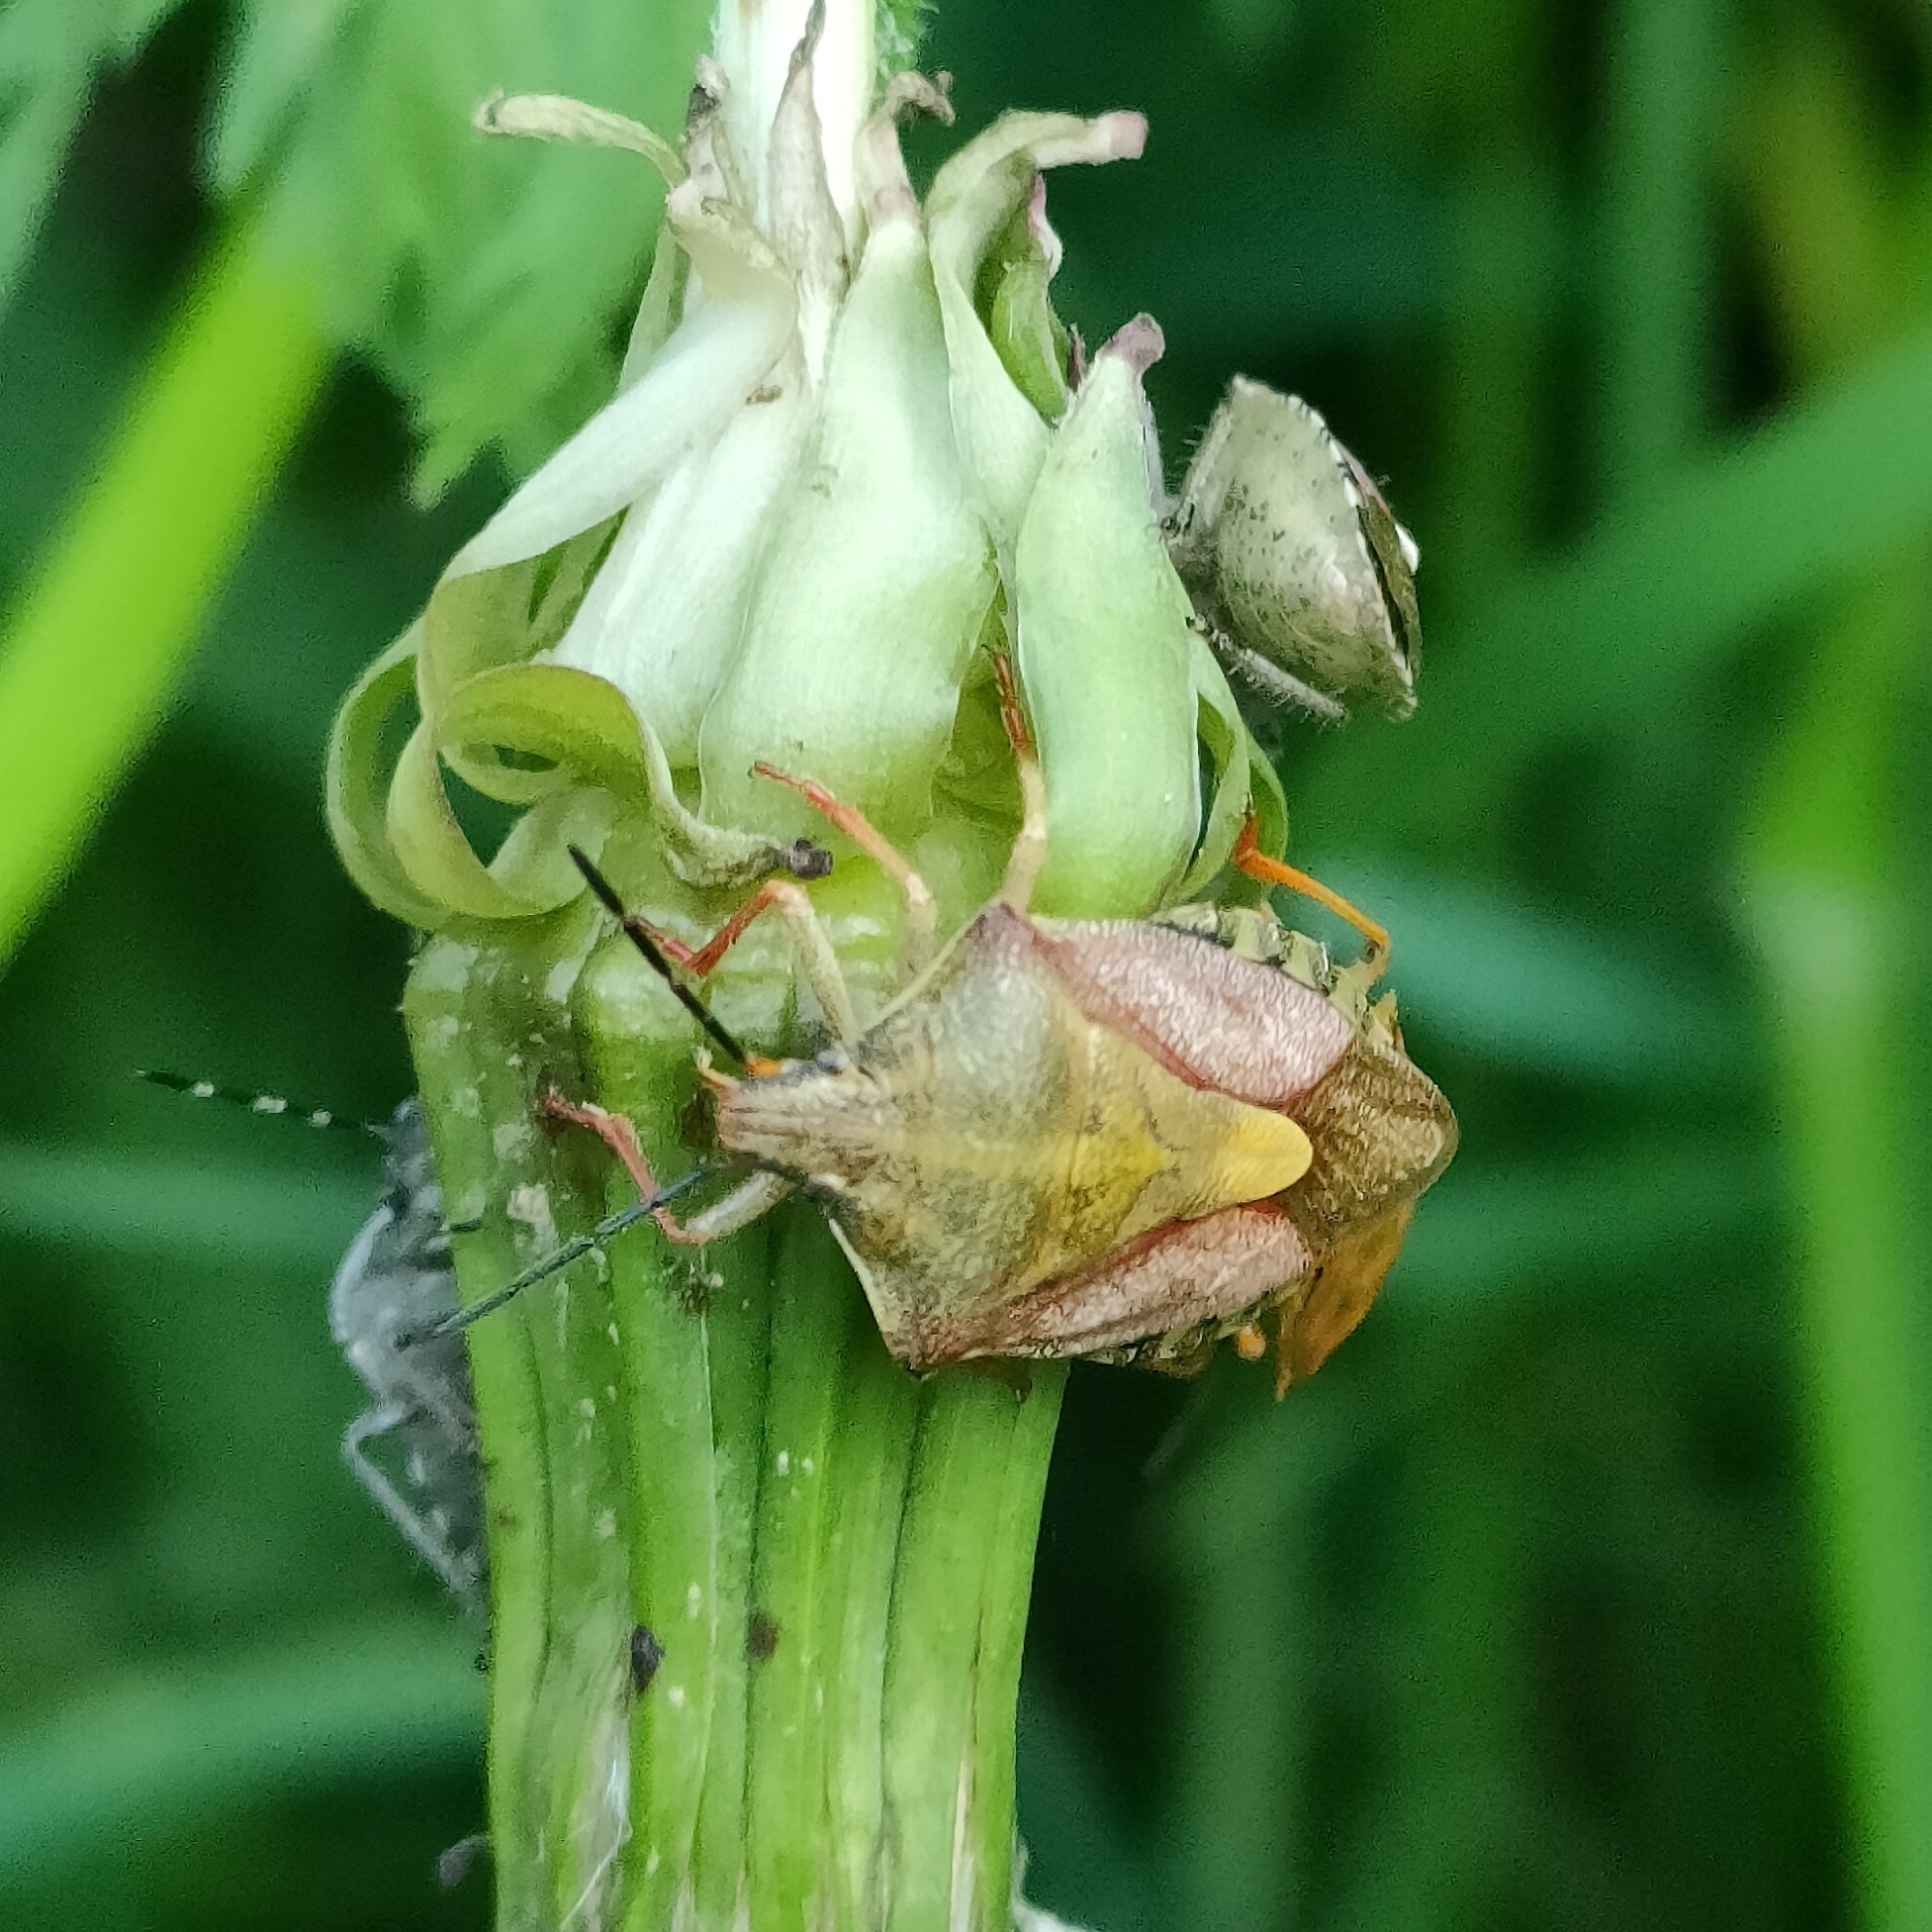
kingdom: Animalia
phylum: Arthropoda
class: Insecta
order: Hemiptera
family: Pentatomidae
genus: Carpocoris
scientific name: Carpocoris purpureipennis
